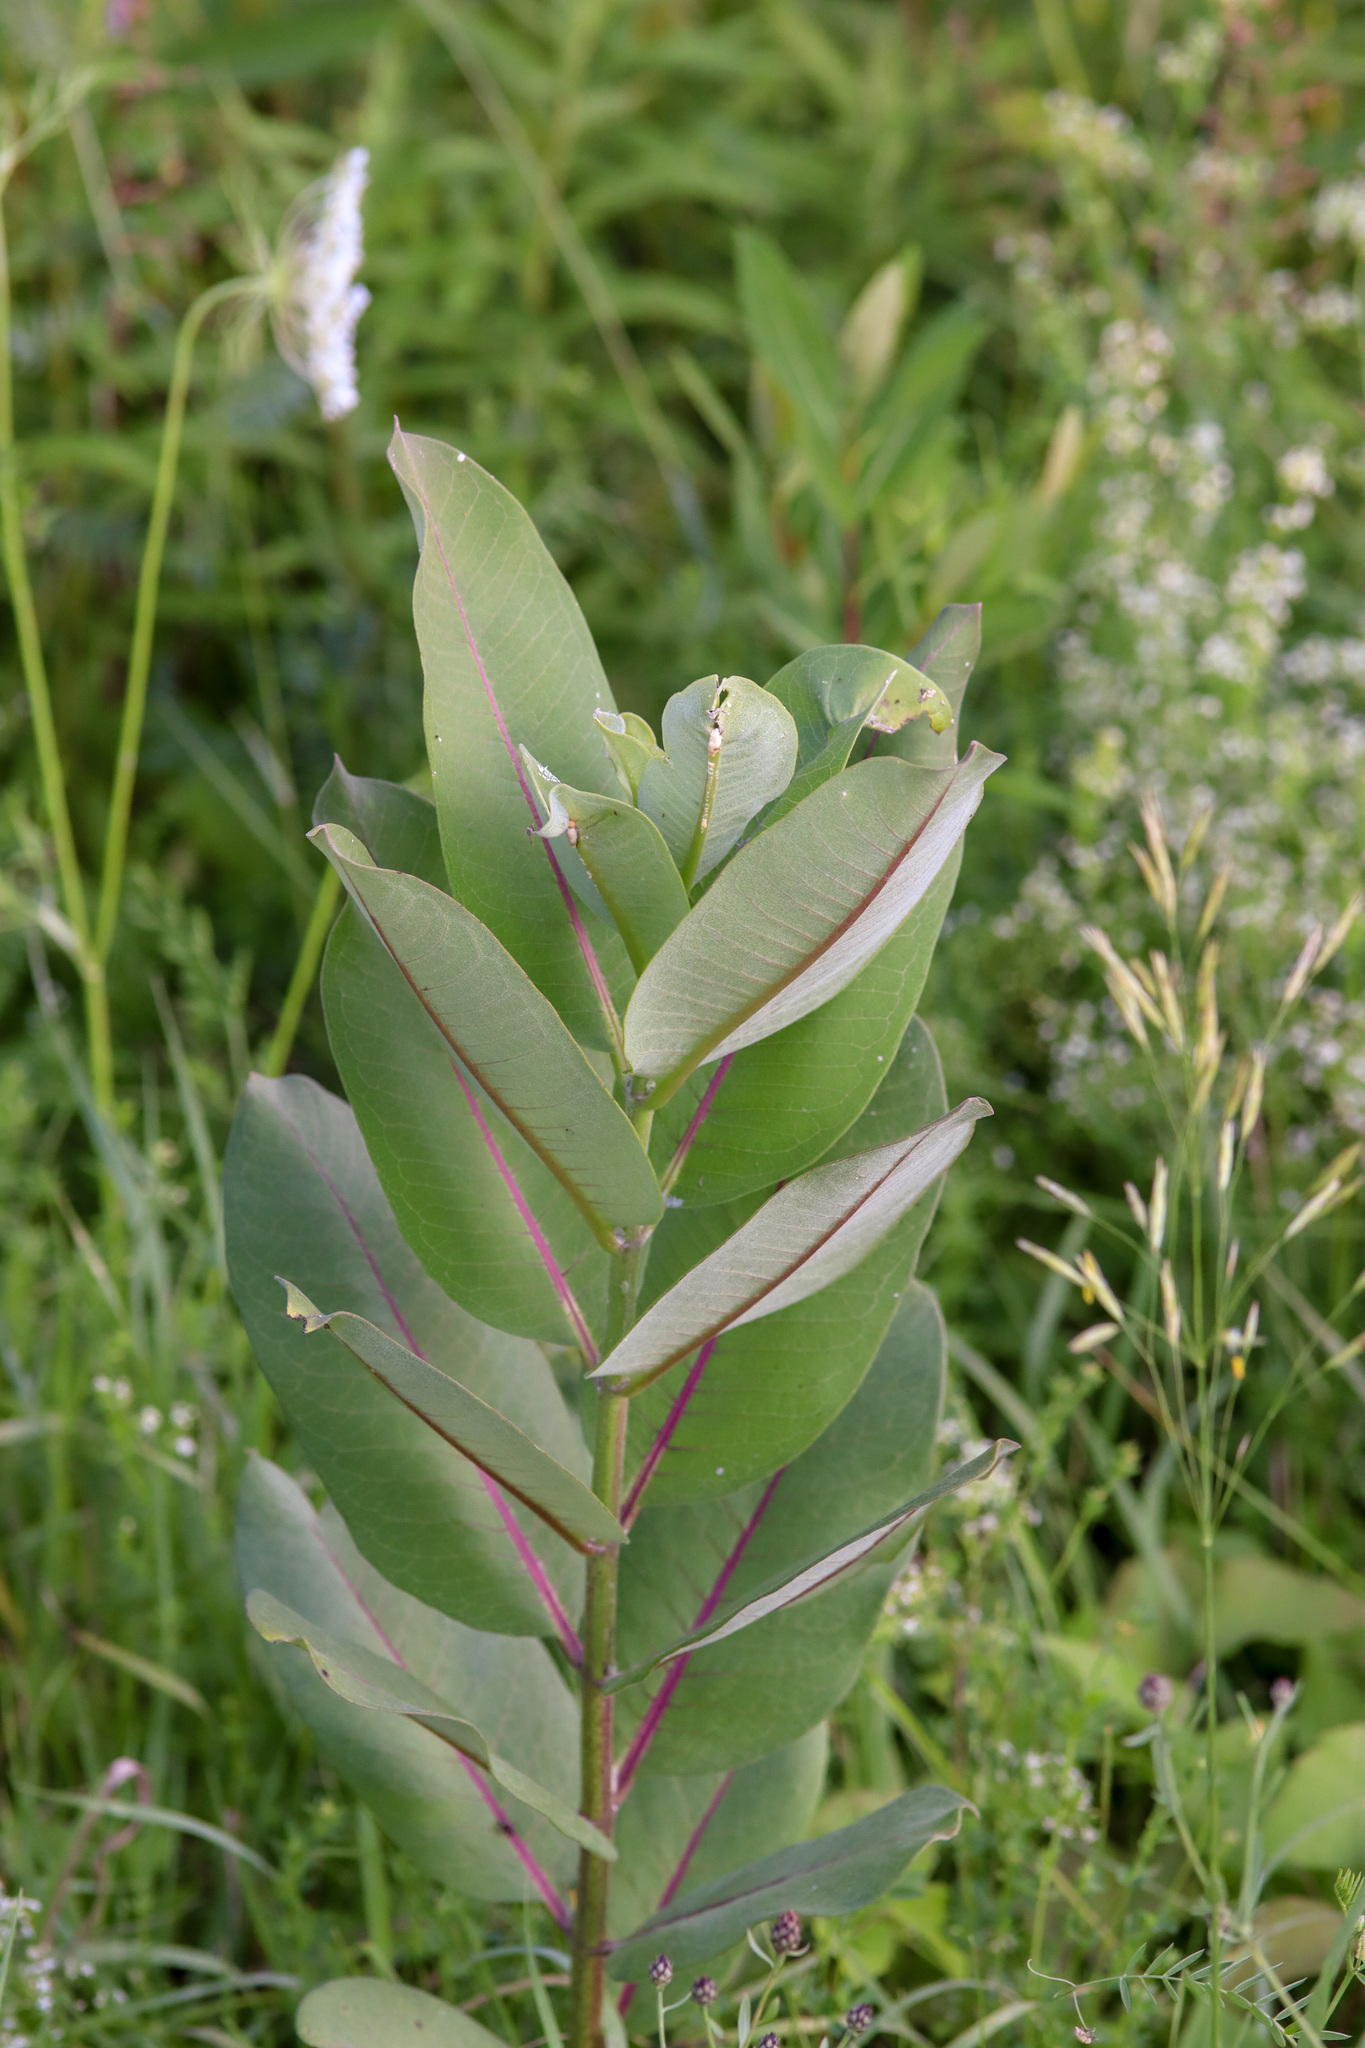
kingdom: Plantae
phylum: Tracheophyta
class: Magnoliopsida
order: Gentianales
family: Apocynaceae
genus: Asclepias
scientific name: Asclepias syriaca
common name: Common milkweed
